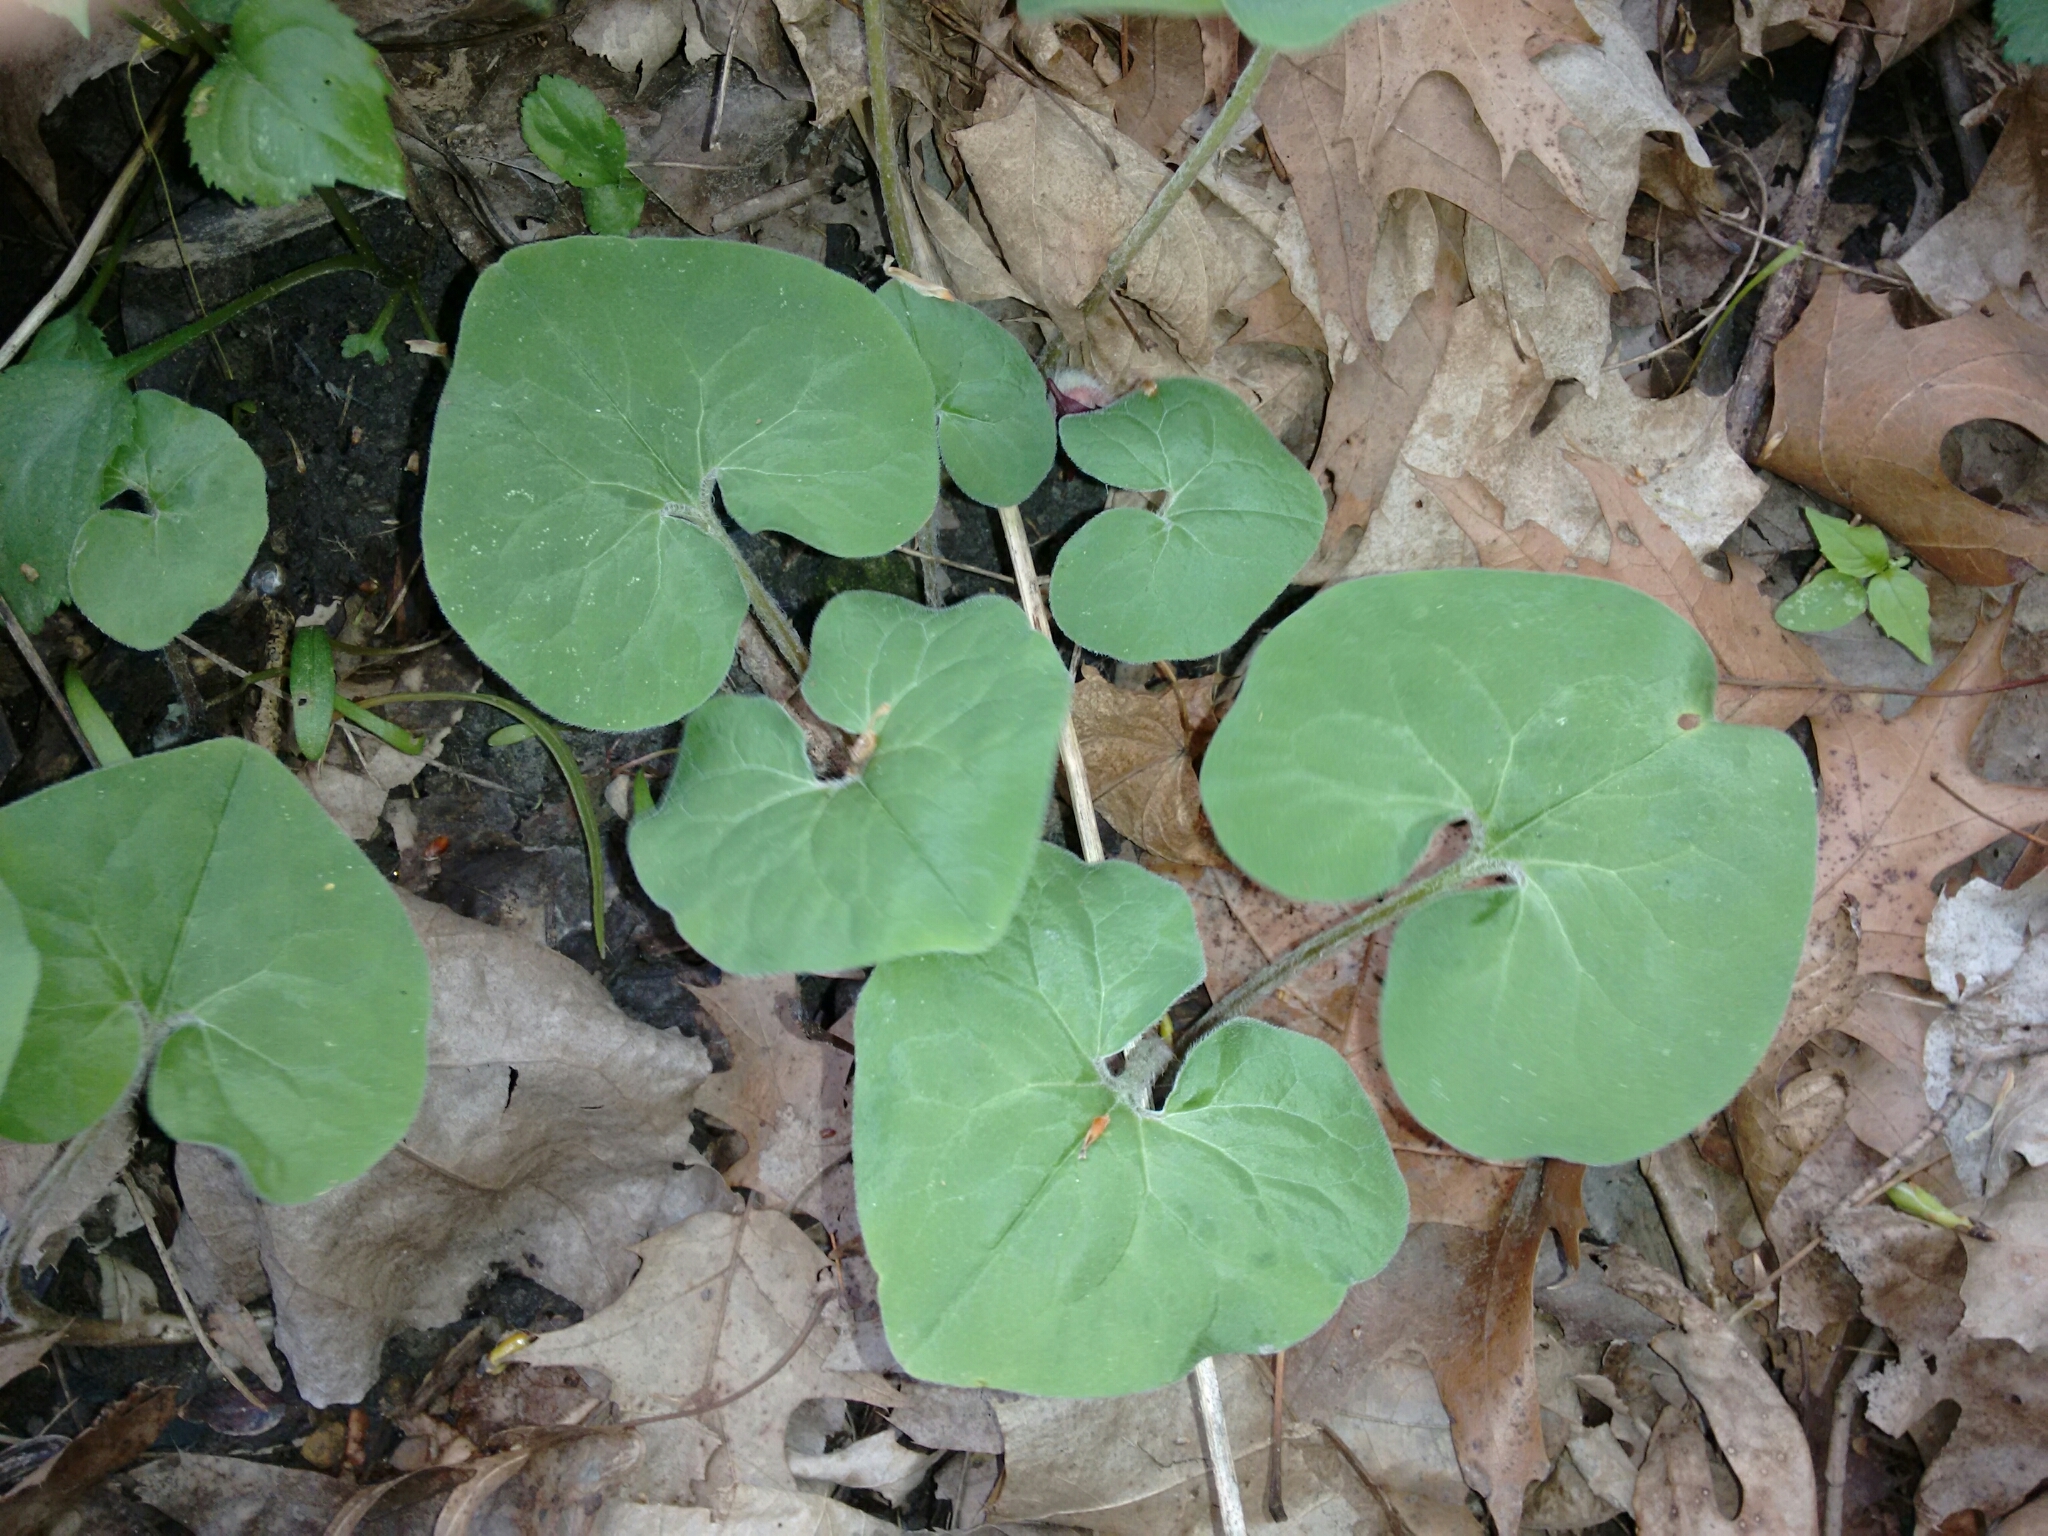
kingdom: Plantae
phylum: Tracheophyta
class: Magnoliopsida
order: Piperales
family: Aristolochiaceae
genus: Asarum
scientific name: Asarum canadense
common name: Wild ginger
